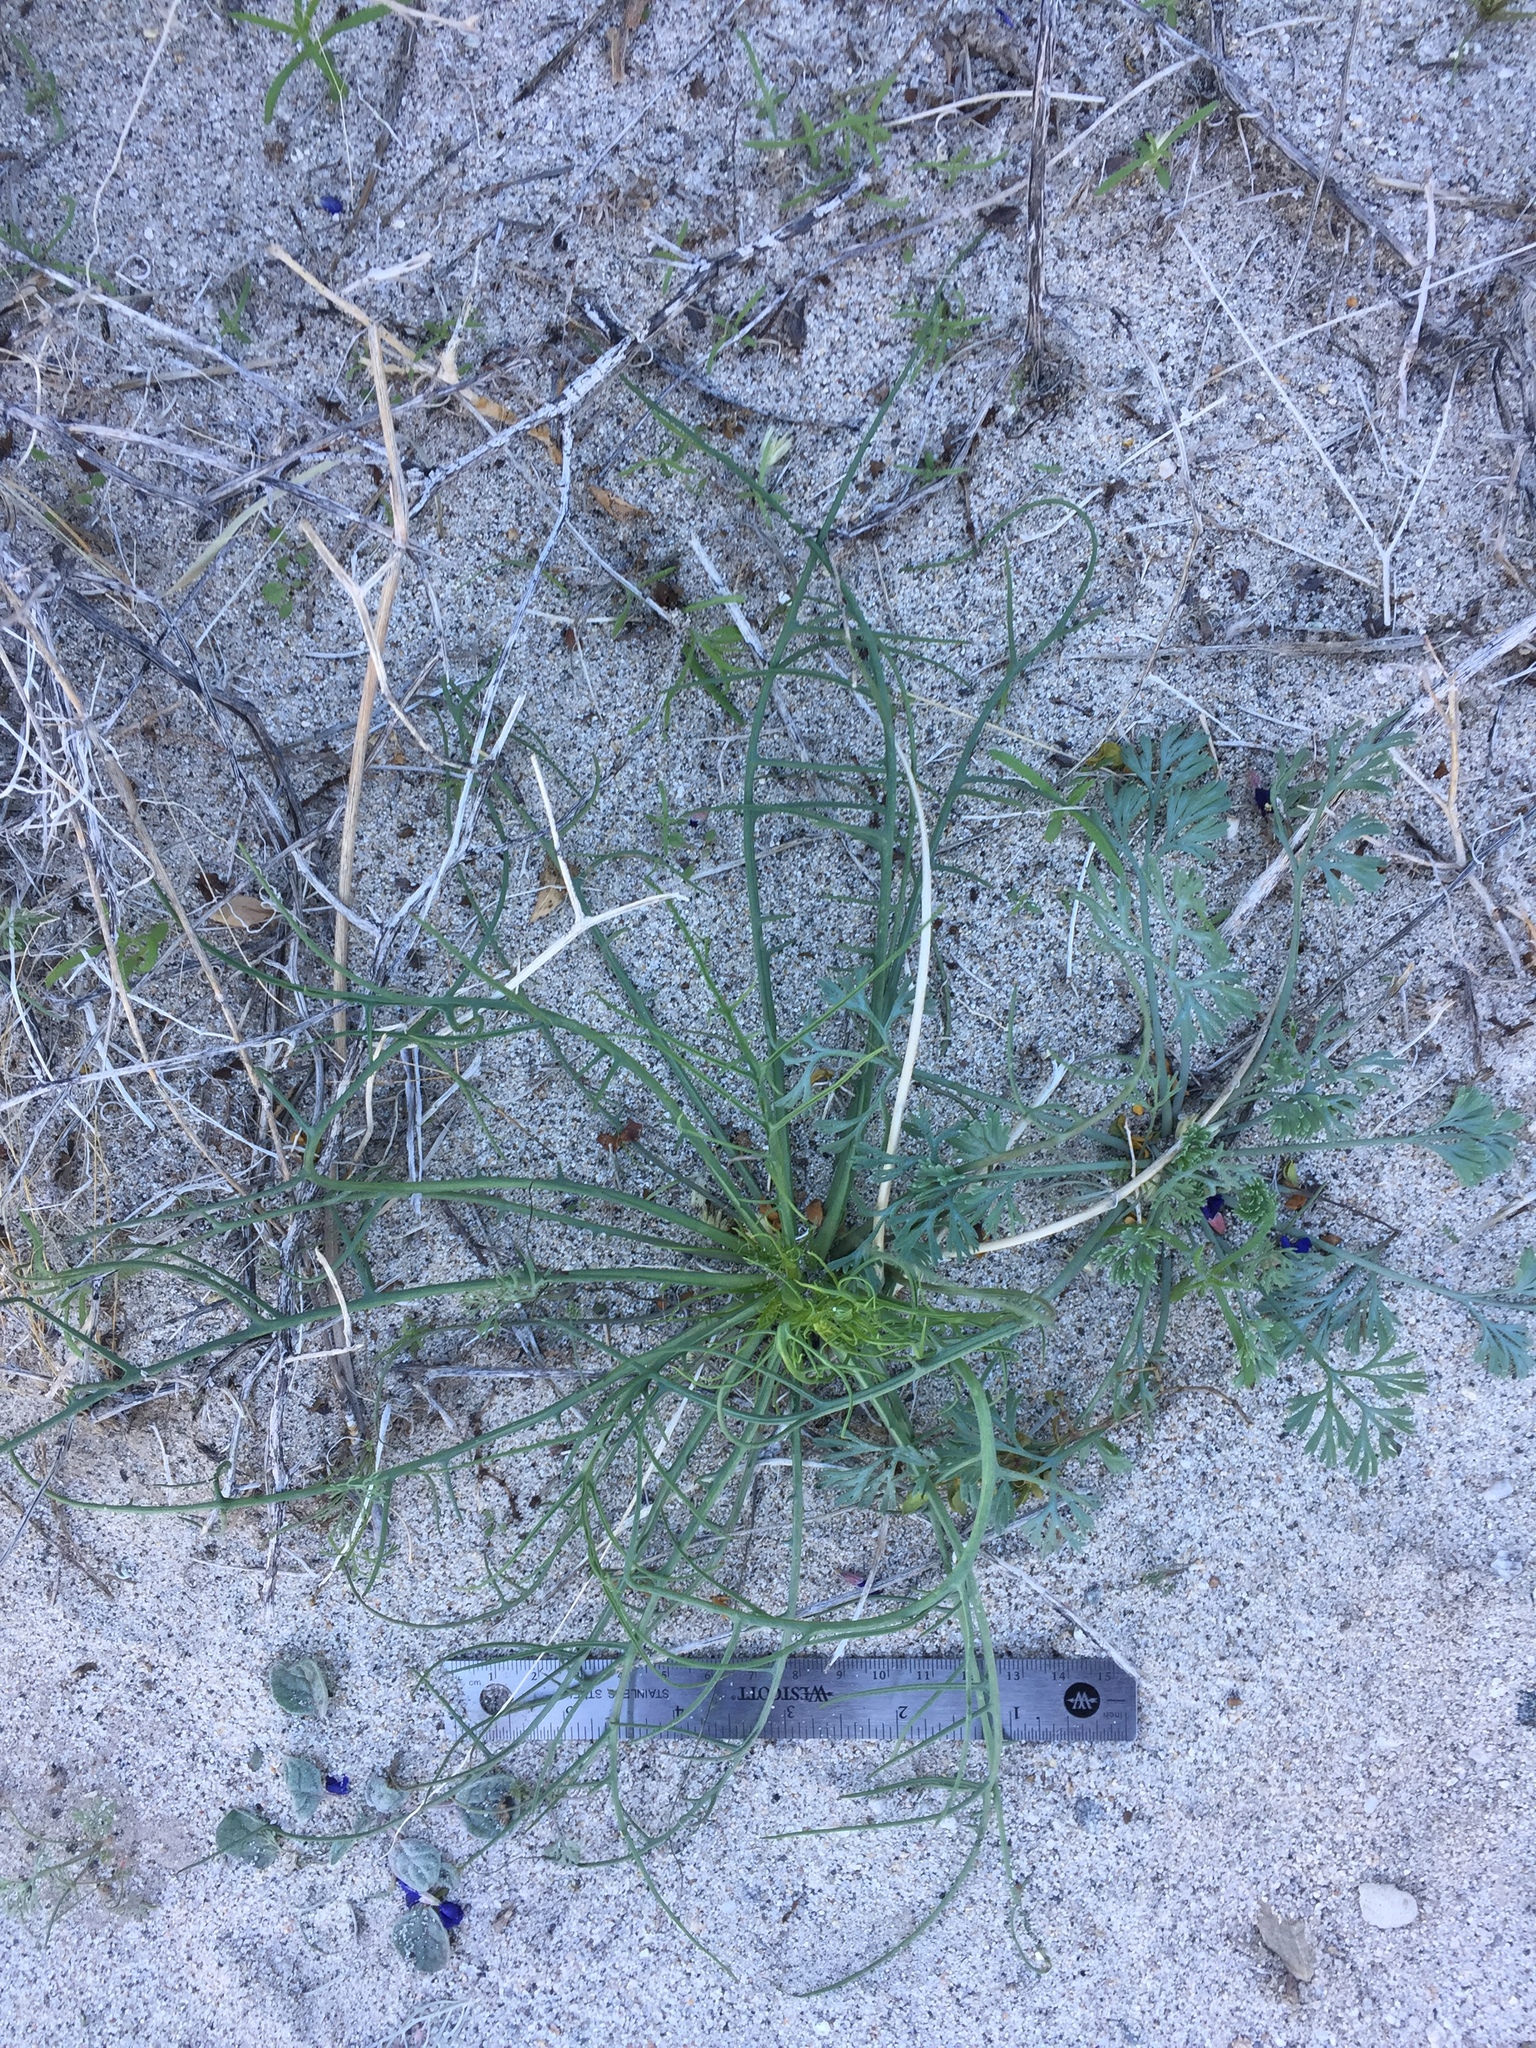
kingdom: Plantae
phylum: Tracheophyta
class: Magnoliopsida
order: Asterales
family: Asteraceae
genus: Calycoseris
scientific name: Calycoseris wrightii
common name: White tackstem
